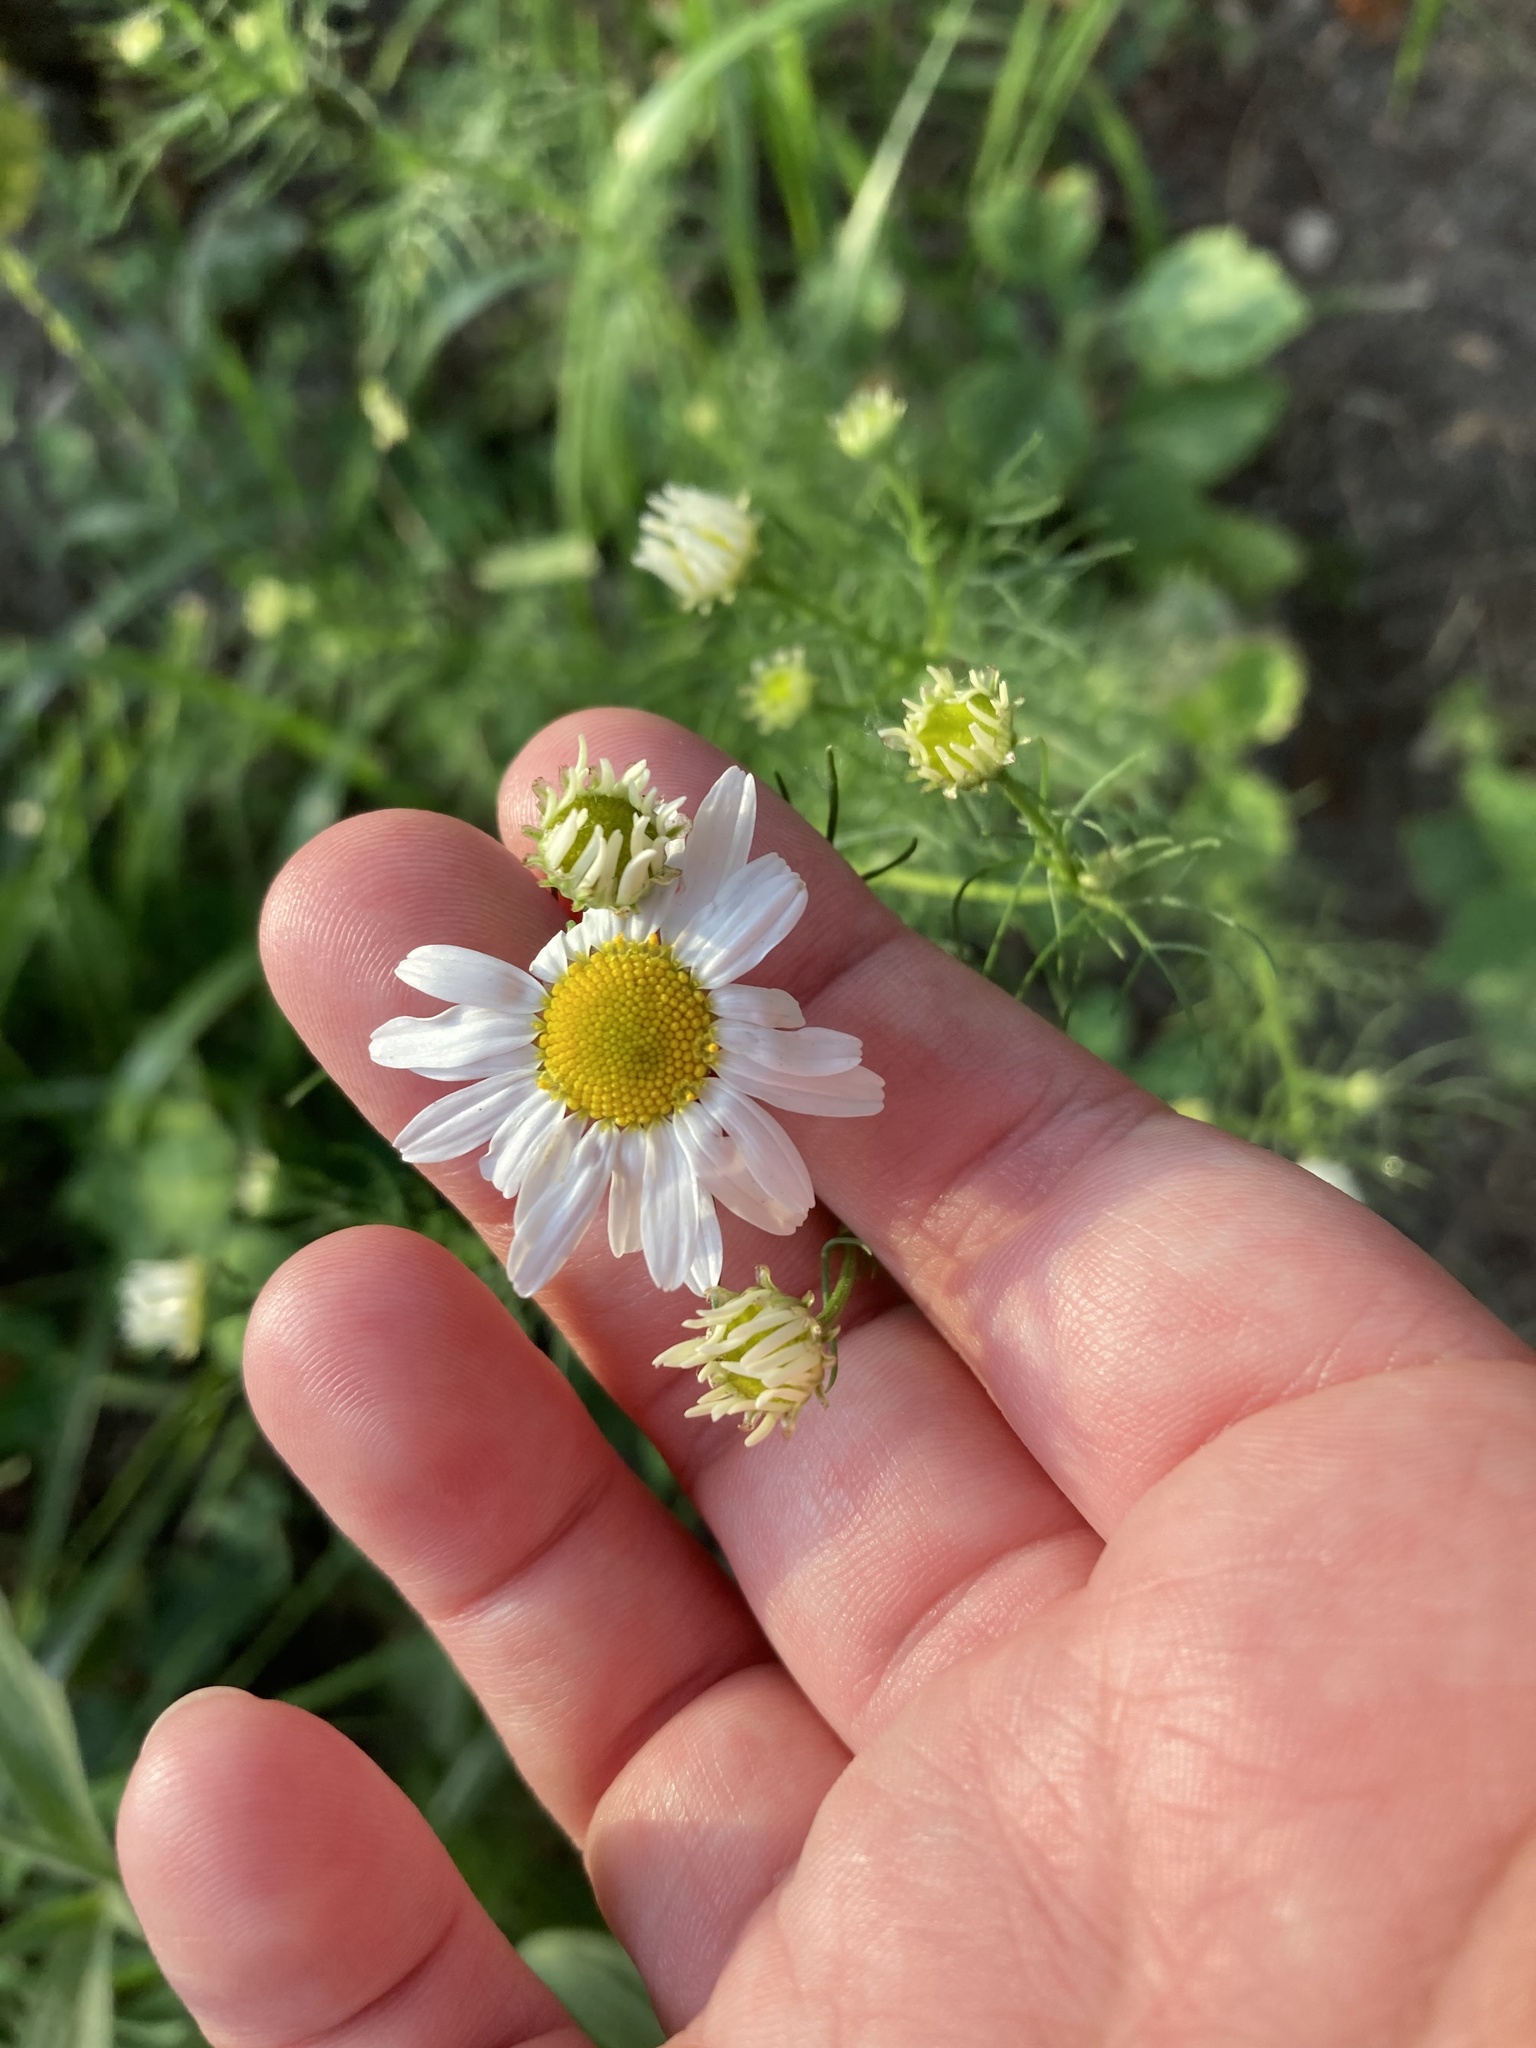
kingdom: Plantae
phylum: Tracheophyta
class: Magnoliopsida
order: Asterales
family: Asteraceae
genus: Tripleurospermum
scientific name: Tripleurospermum inodorum
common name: Scentless mayweed
